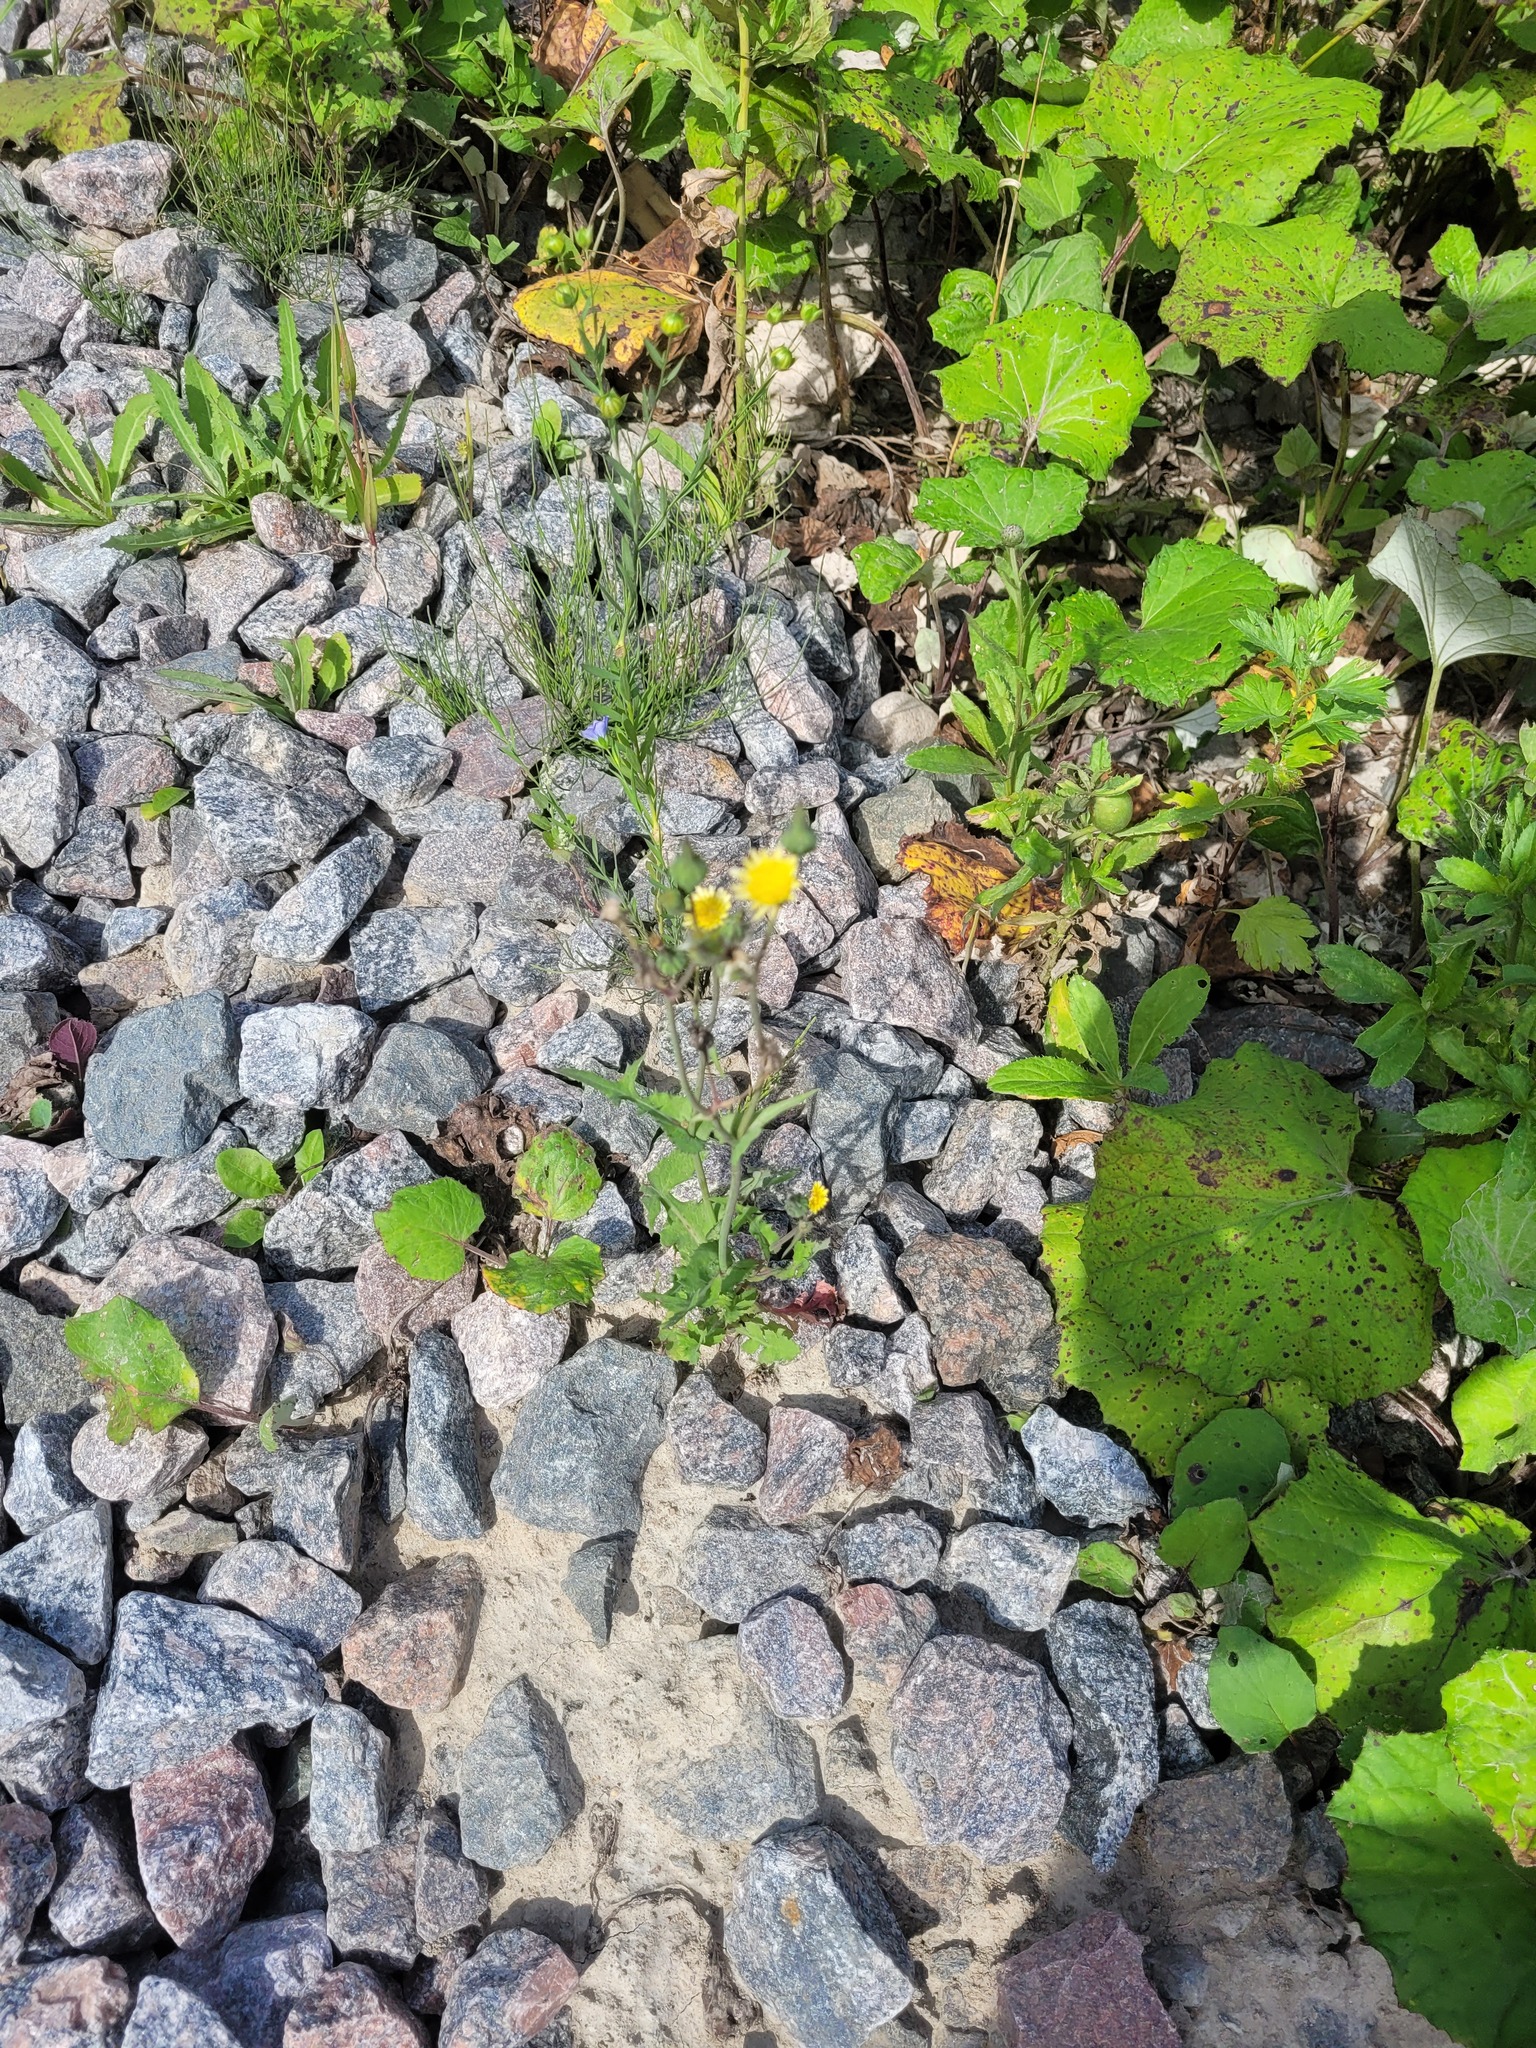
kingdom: Plantae
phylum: Tracheophyta
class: Magnoliopsida
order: Asterales
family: Asteraceae
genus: Sonchus
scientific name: Sonchus oleraceus
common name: Common sowthistle
